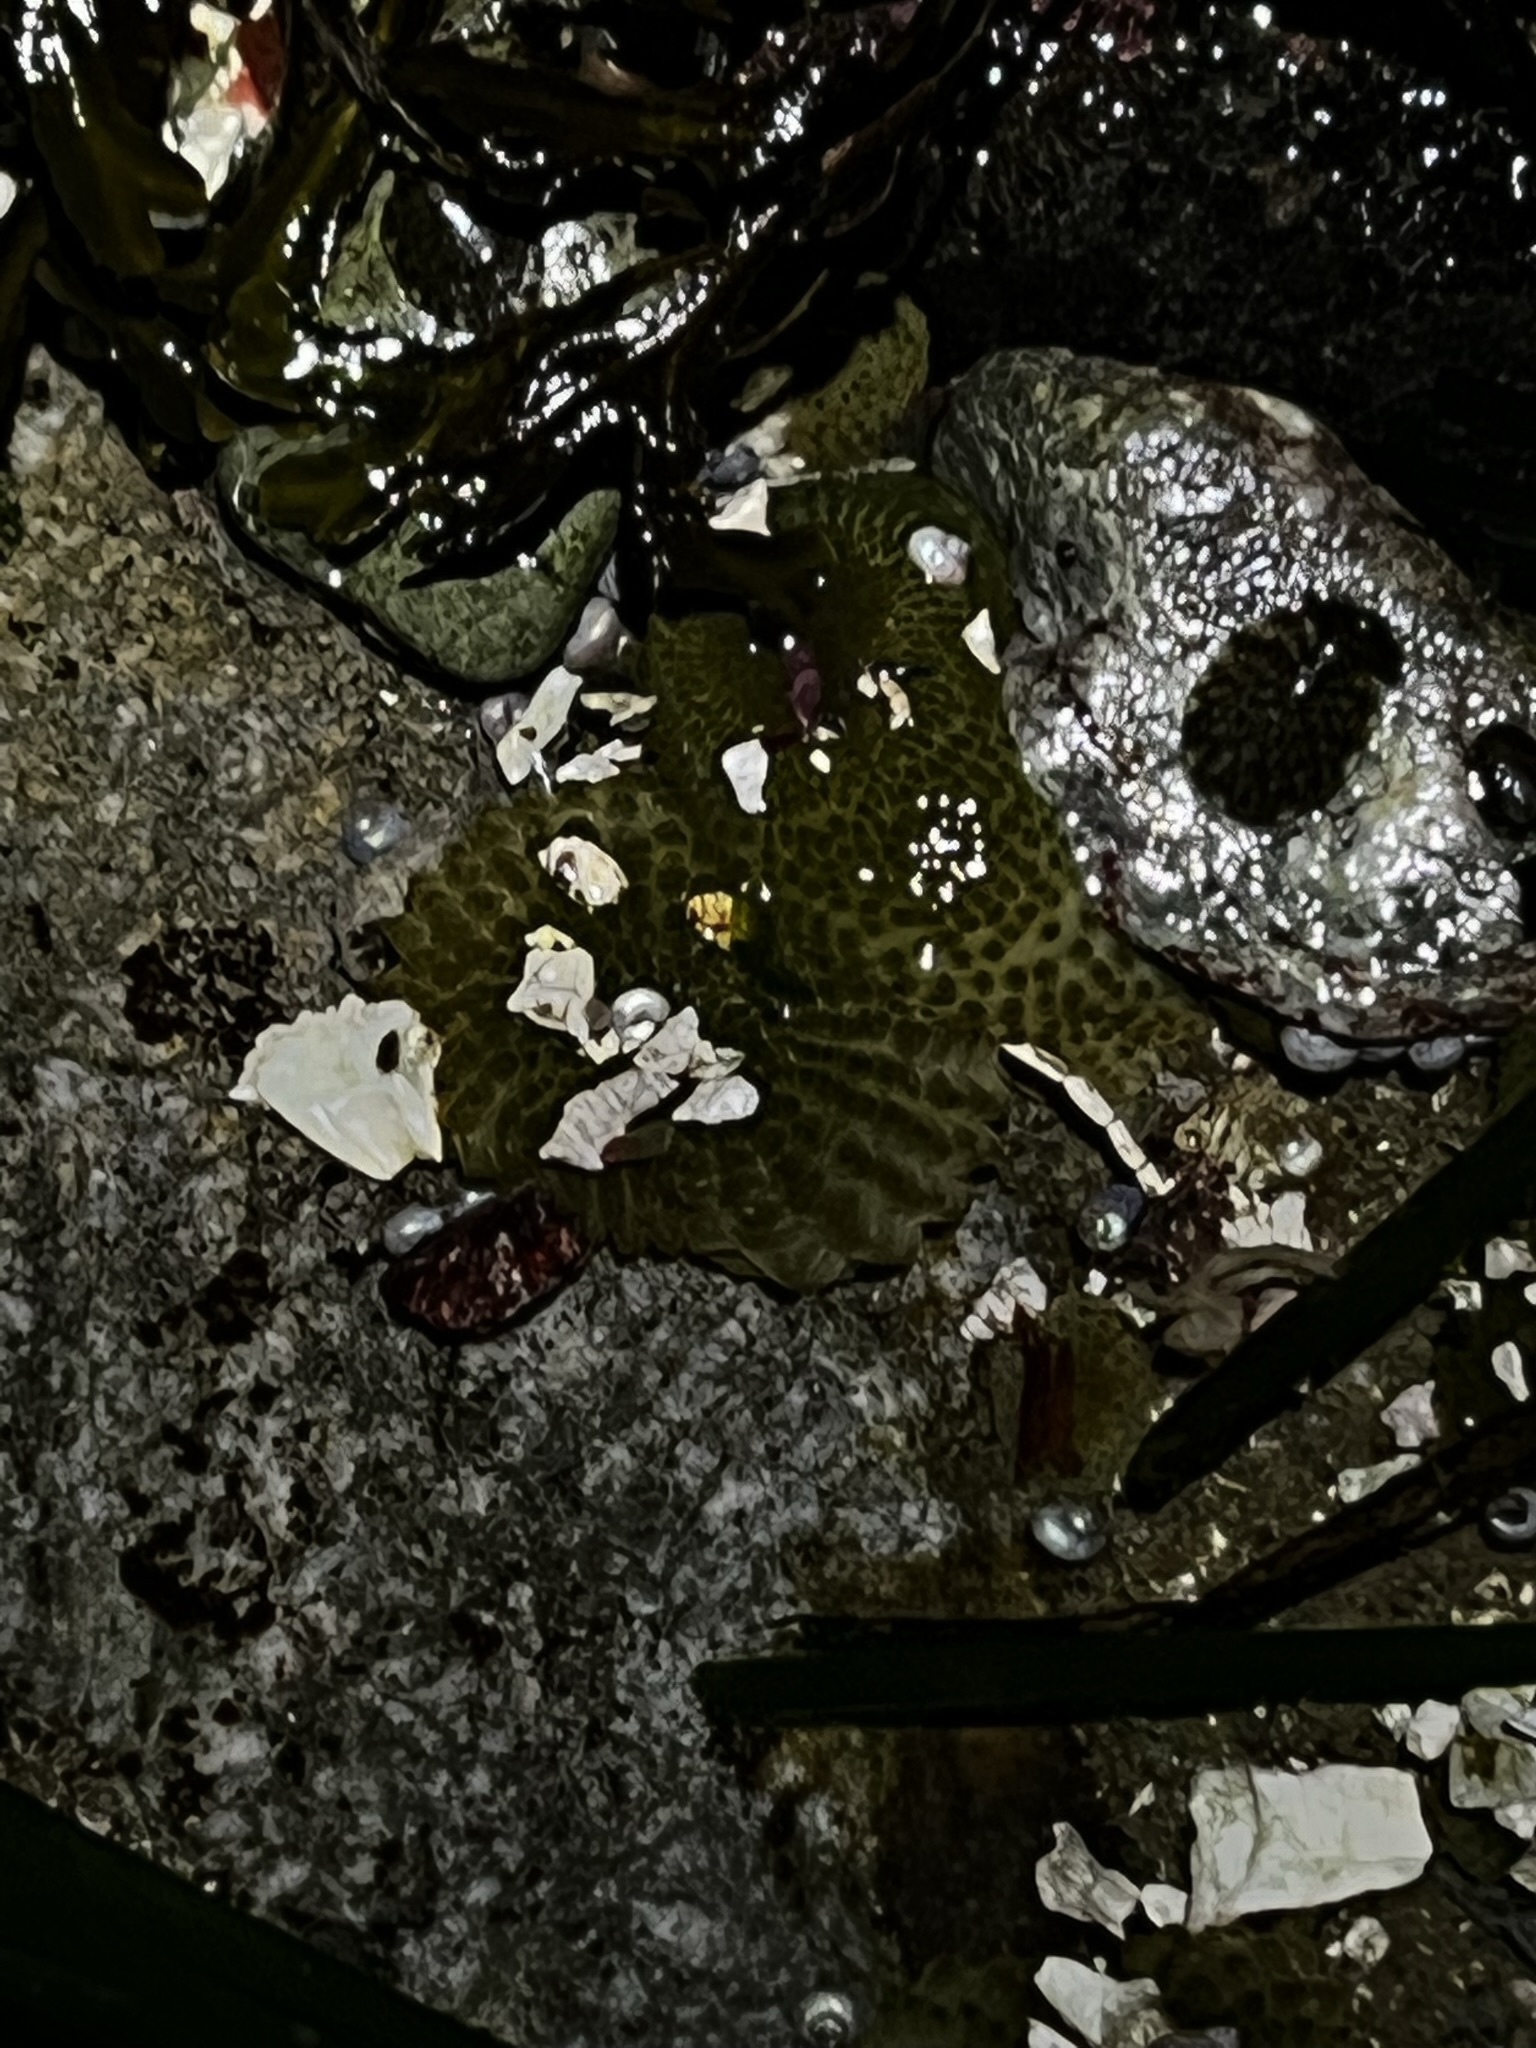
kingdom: Animalia
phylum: Cnidaria
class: Anthozoa
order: Actiniaria
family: Actiniidae
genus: Anthopleura
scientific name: Anthopleura elegantissima
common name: Clonal anemone
